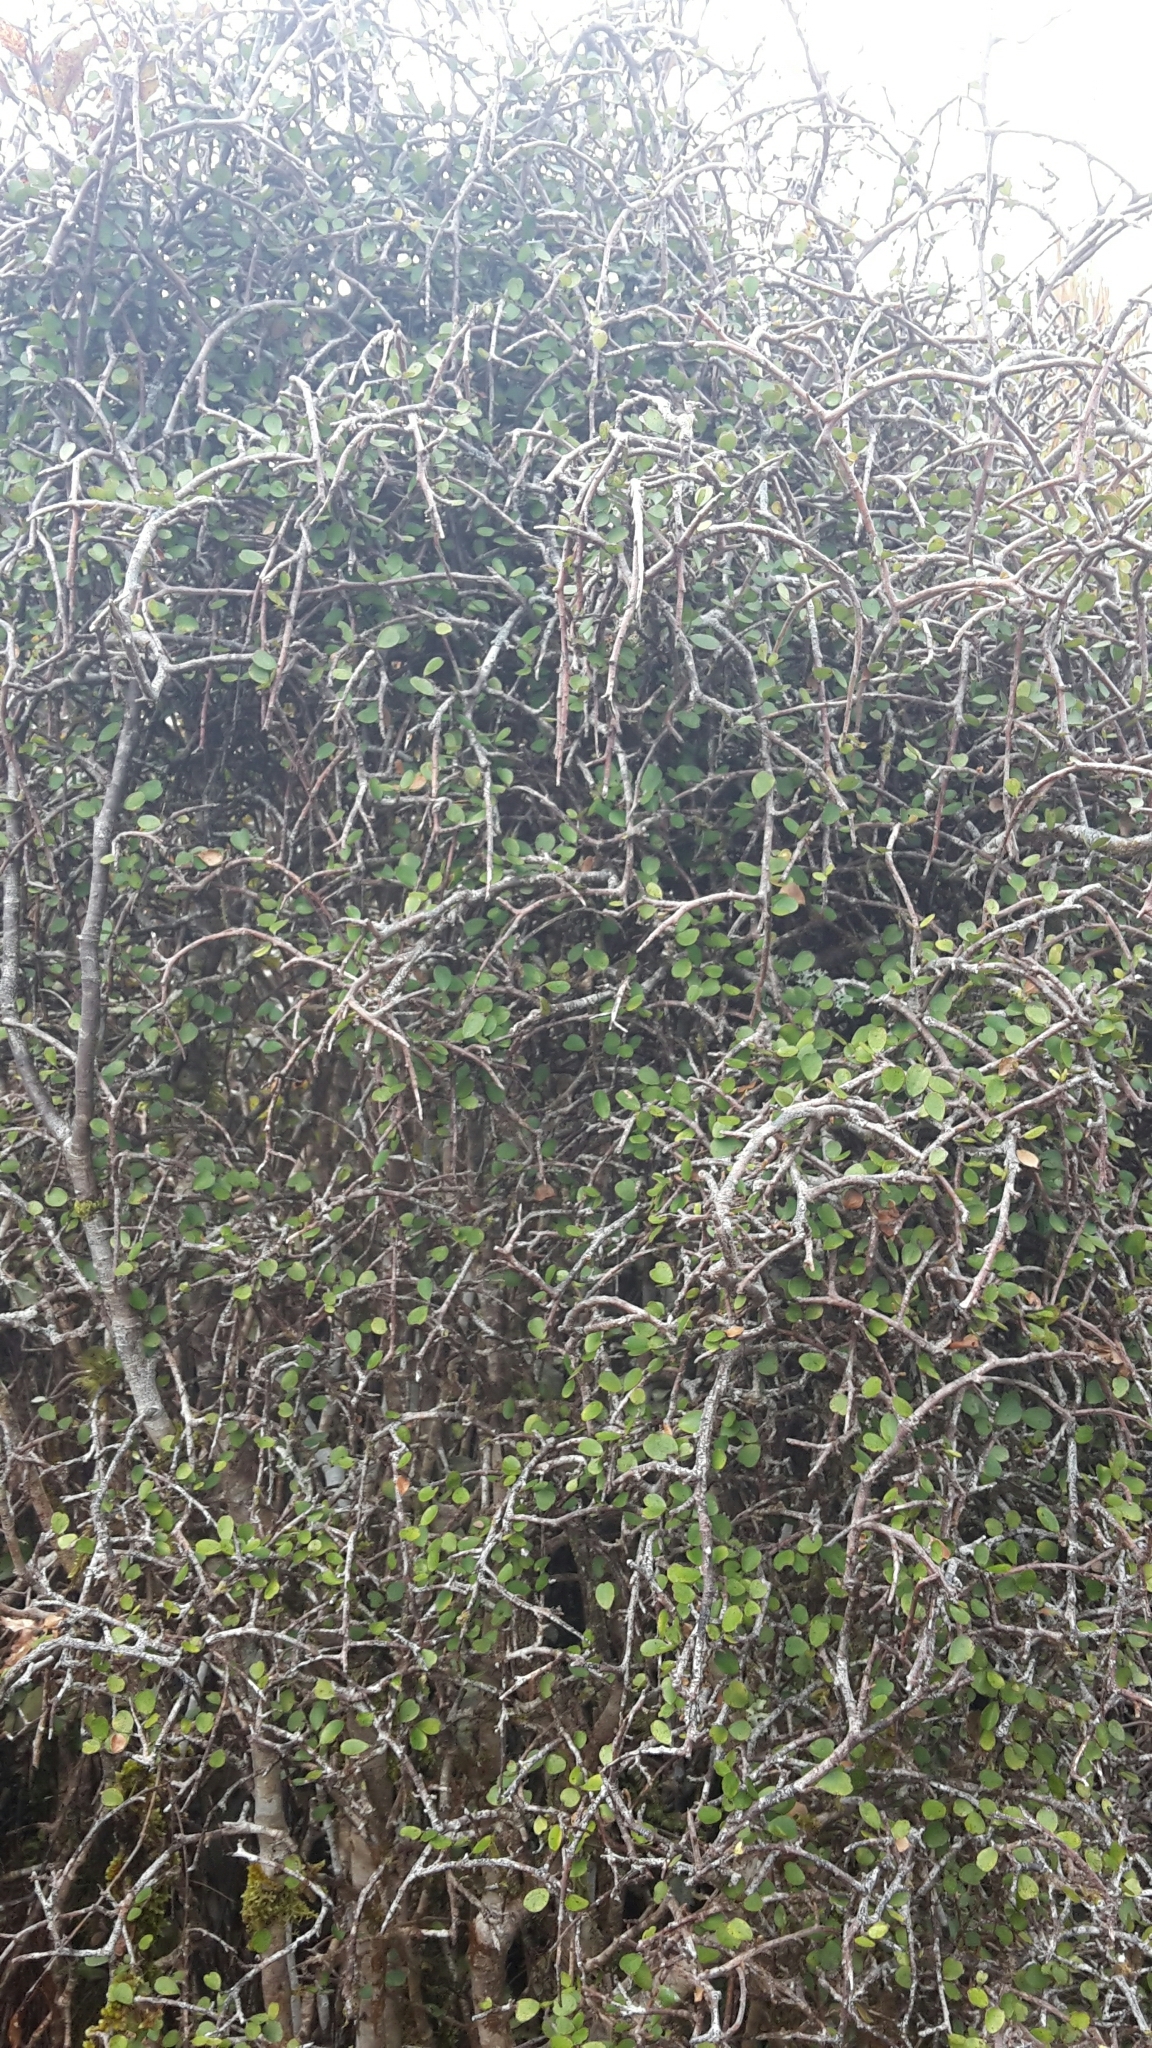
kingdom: Plantae
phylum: Tracheophyta
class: Magnoliopsida
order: Ericales
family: Primulaceae
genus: Myrsine
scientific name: Myrsine divaricata
